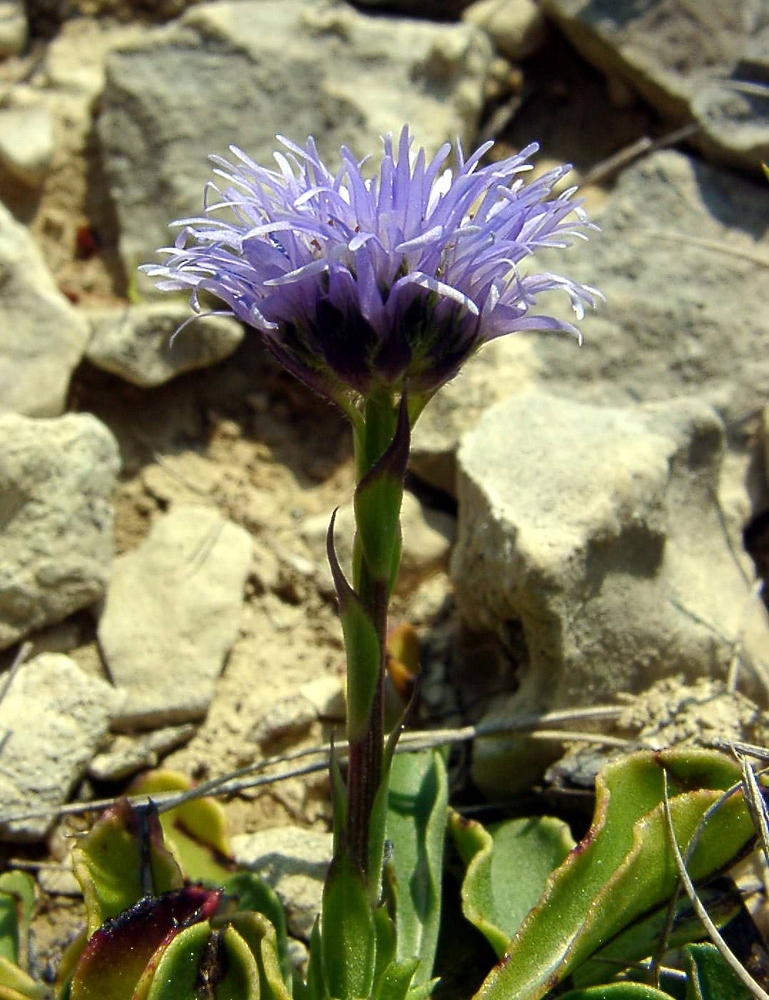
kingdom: Plantae
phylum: Tracheophyta
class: Magnoliopsida
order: Lamiales
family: Plantaginaceae
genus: Globularia
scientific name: Globularia vulgaris
